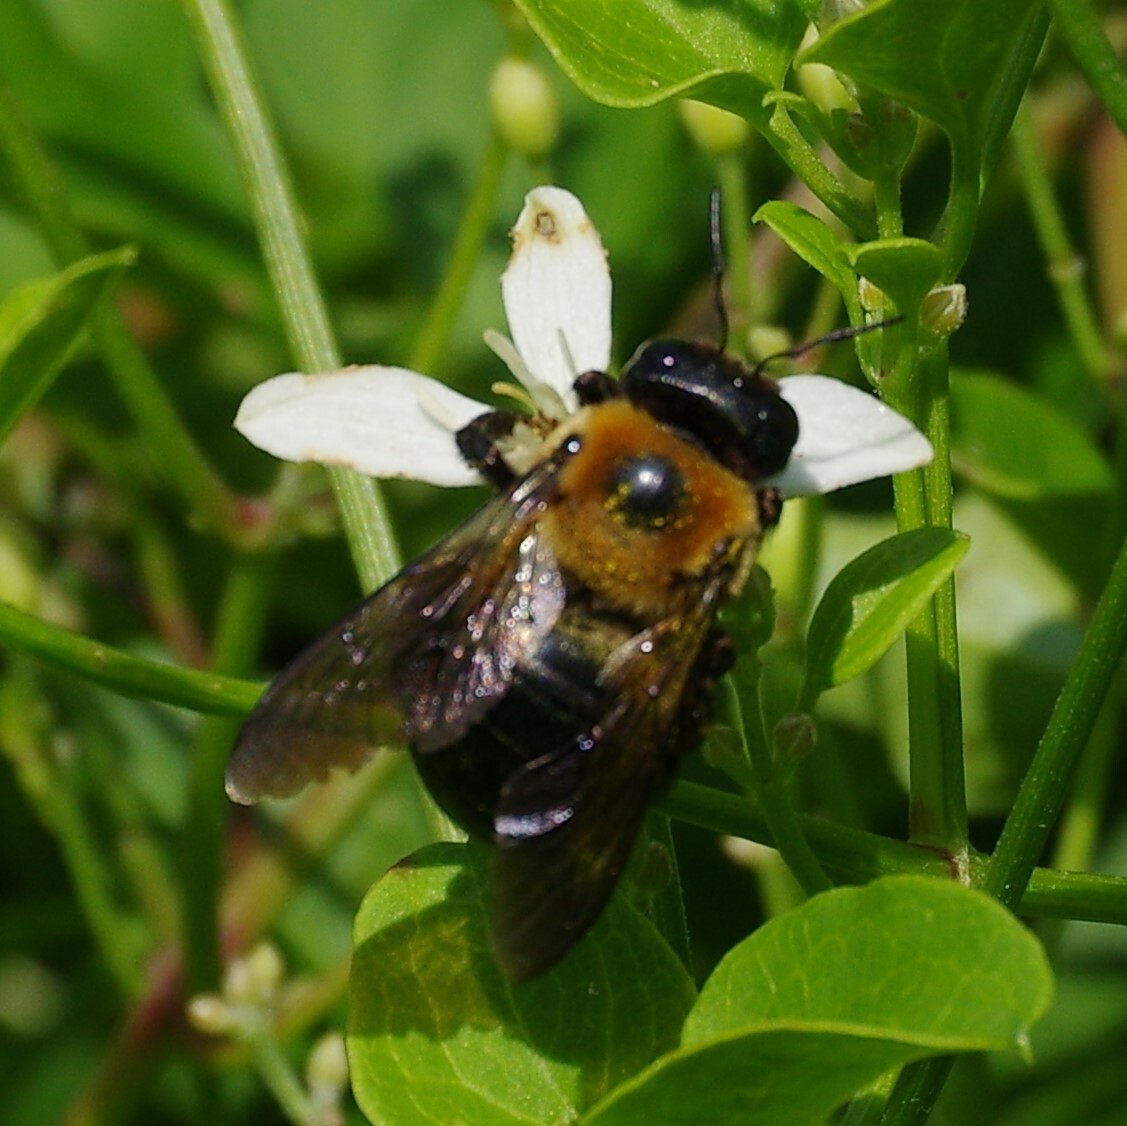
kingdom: Animalia
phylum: Arthropoda
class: Insecta
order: Hymenoptera
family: Apidae
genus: Xylocopa
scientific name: Xylocopa virginica
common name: Carpenter bee
